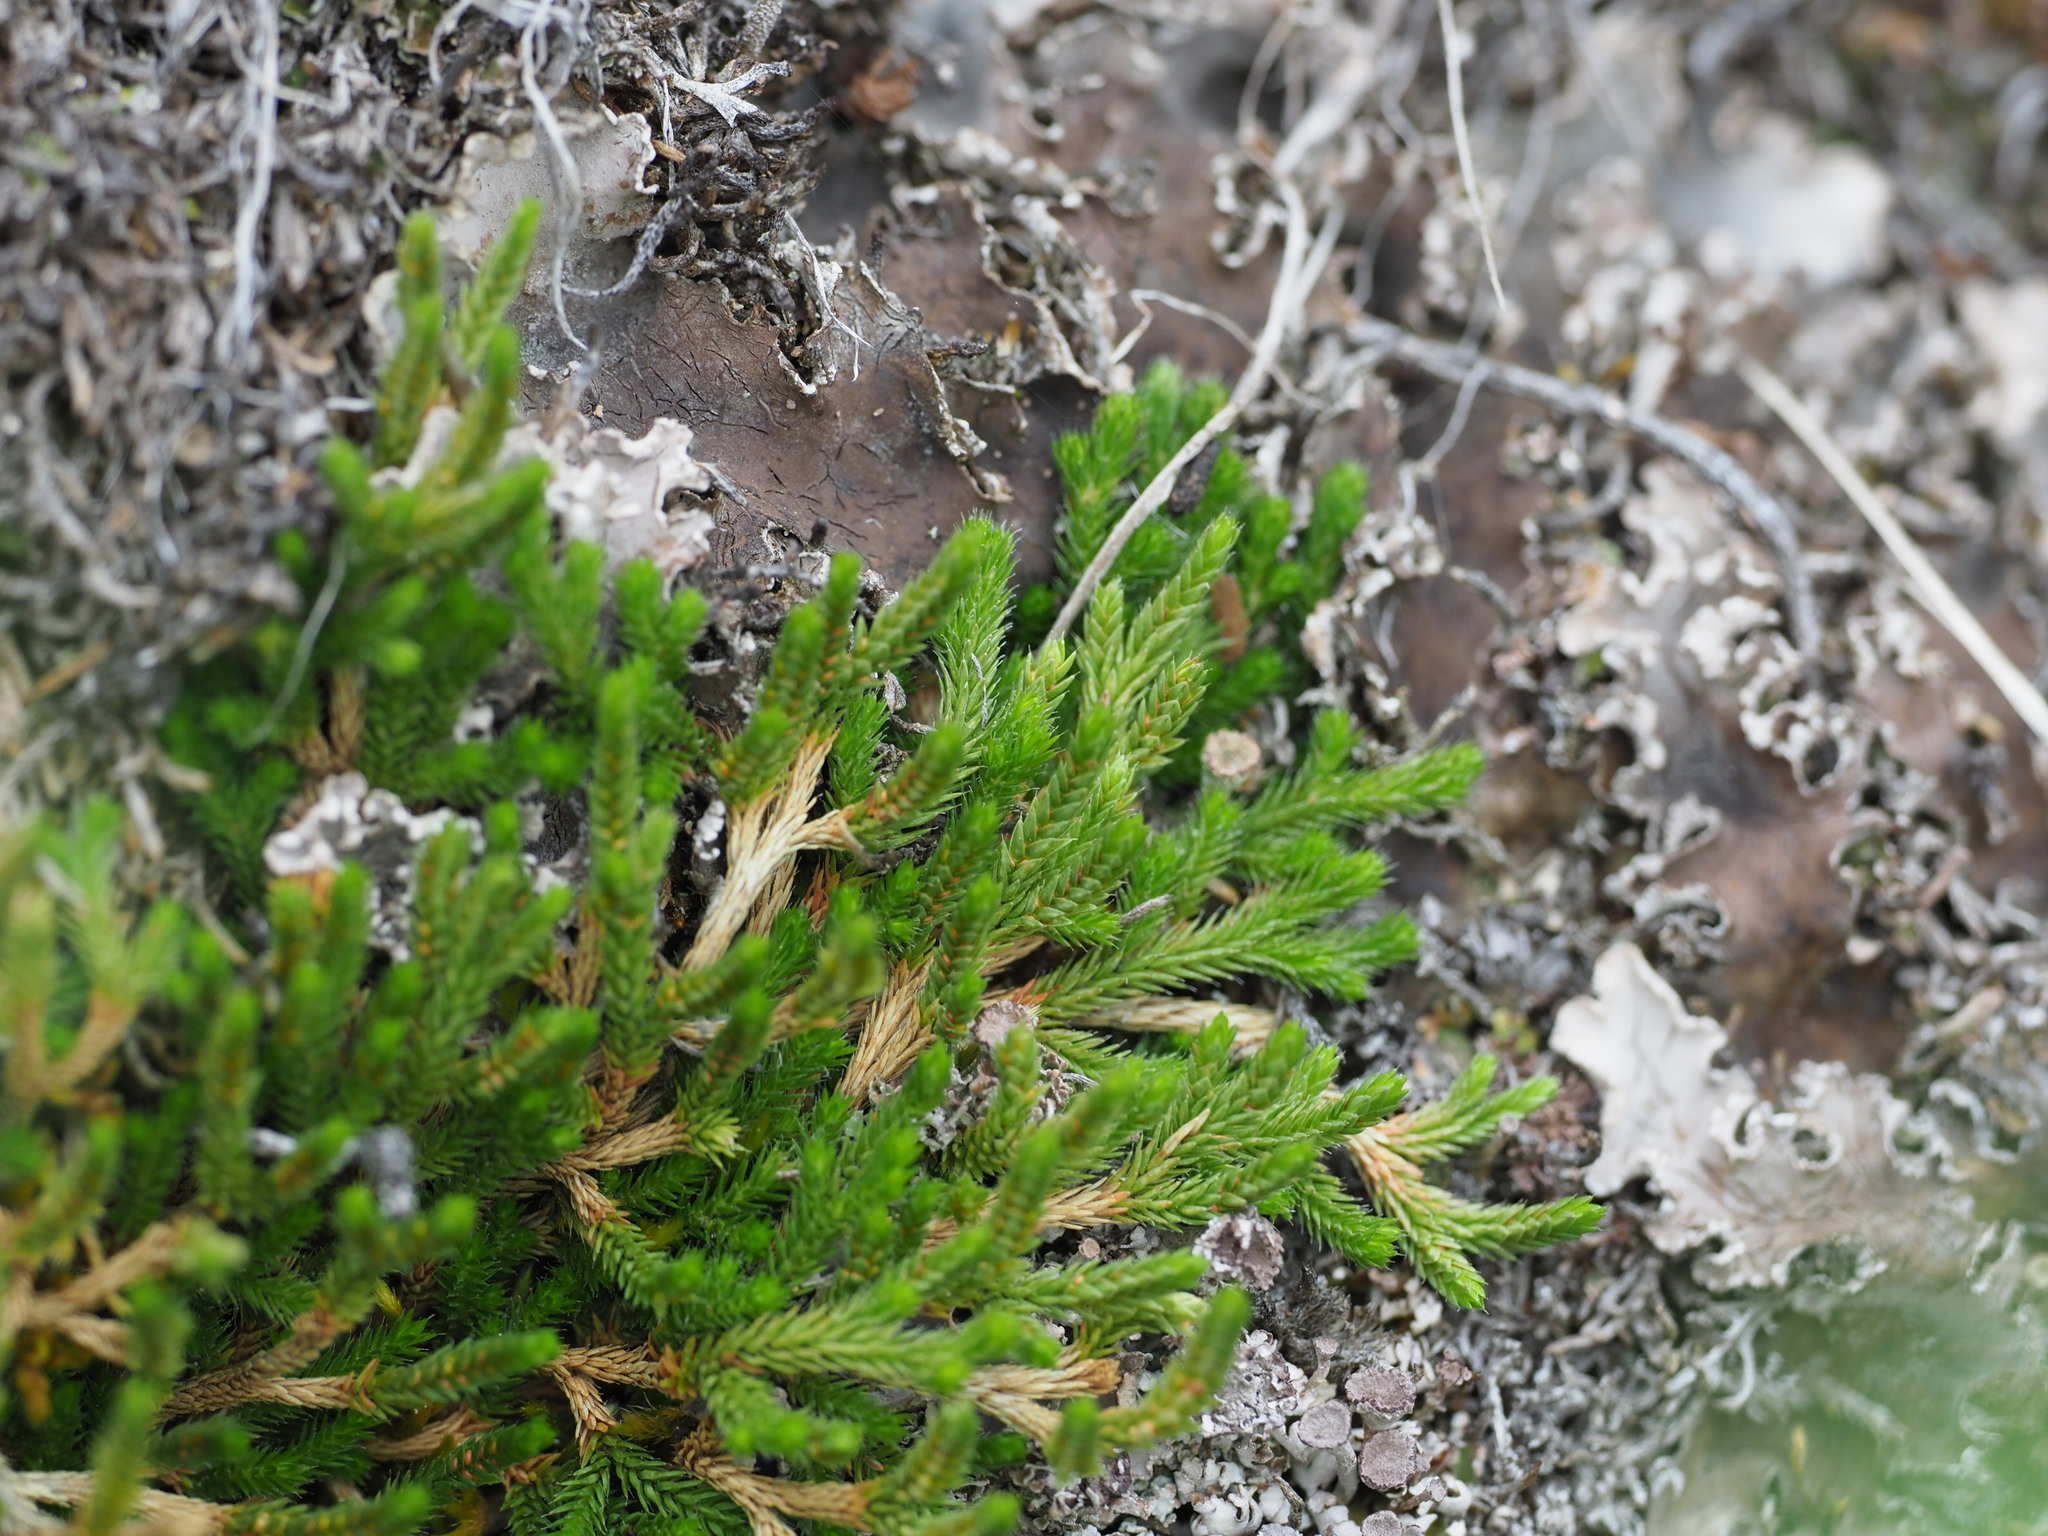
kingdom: Plantae
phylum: Tracheophyta
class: Lycopodiopsida
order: Selaginellales
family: Selaginellaceae
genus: Selaginella
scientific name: Selaginella wallacei
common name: Wallace's selaginella
